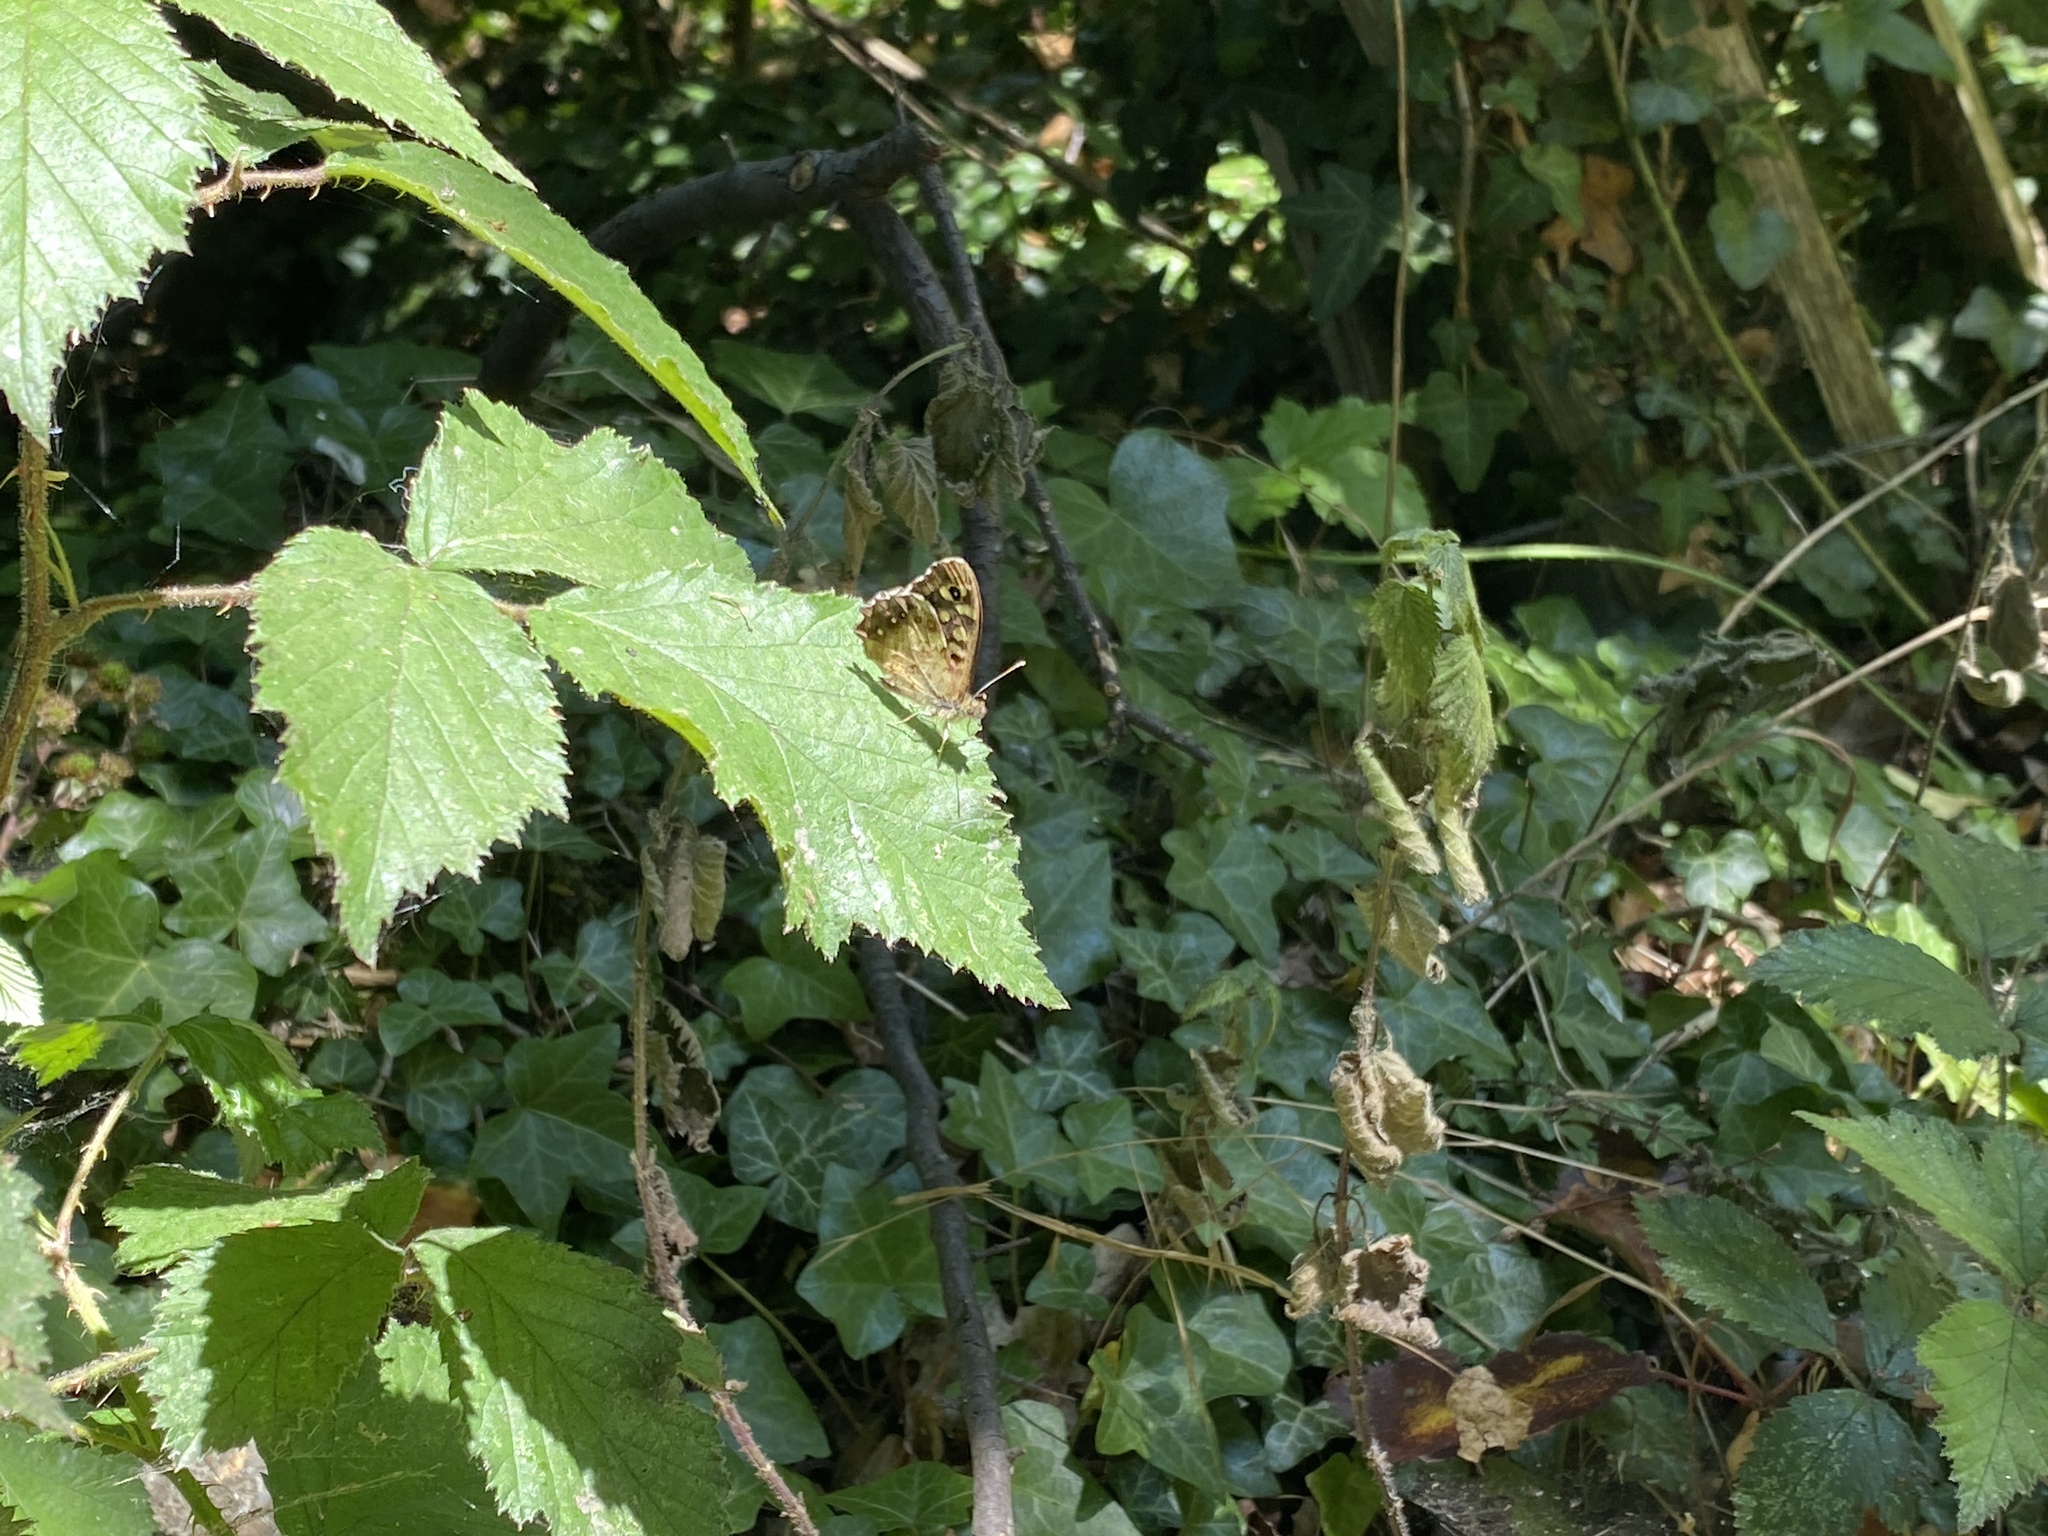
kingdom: Animalia
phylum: Arthropoda
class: Insecta
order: Lepidoptera
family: Nymphalidae
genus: Pararge
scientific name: Pararge aegeria
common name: Speckled wood
